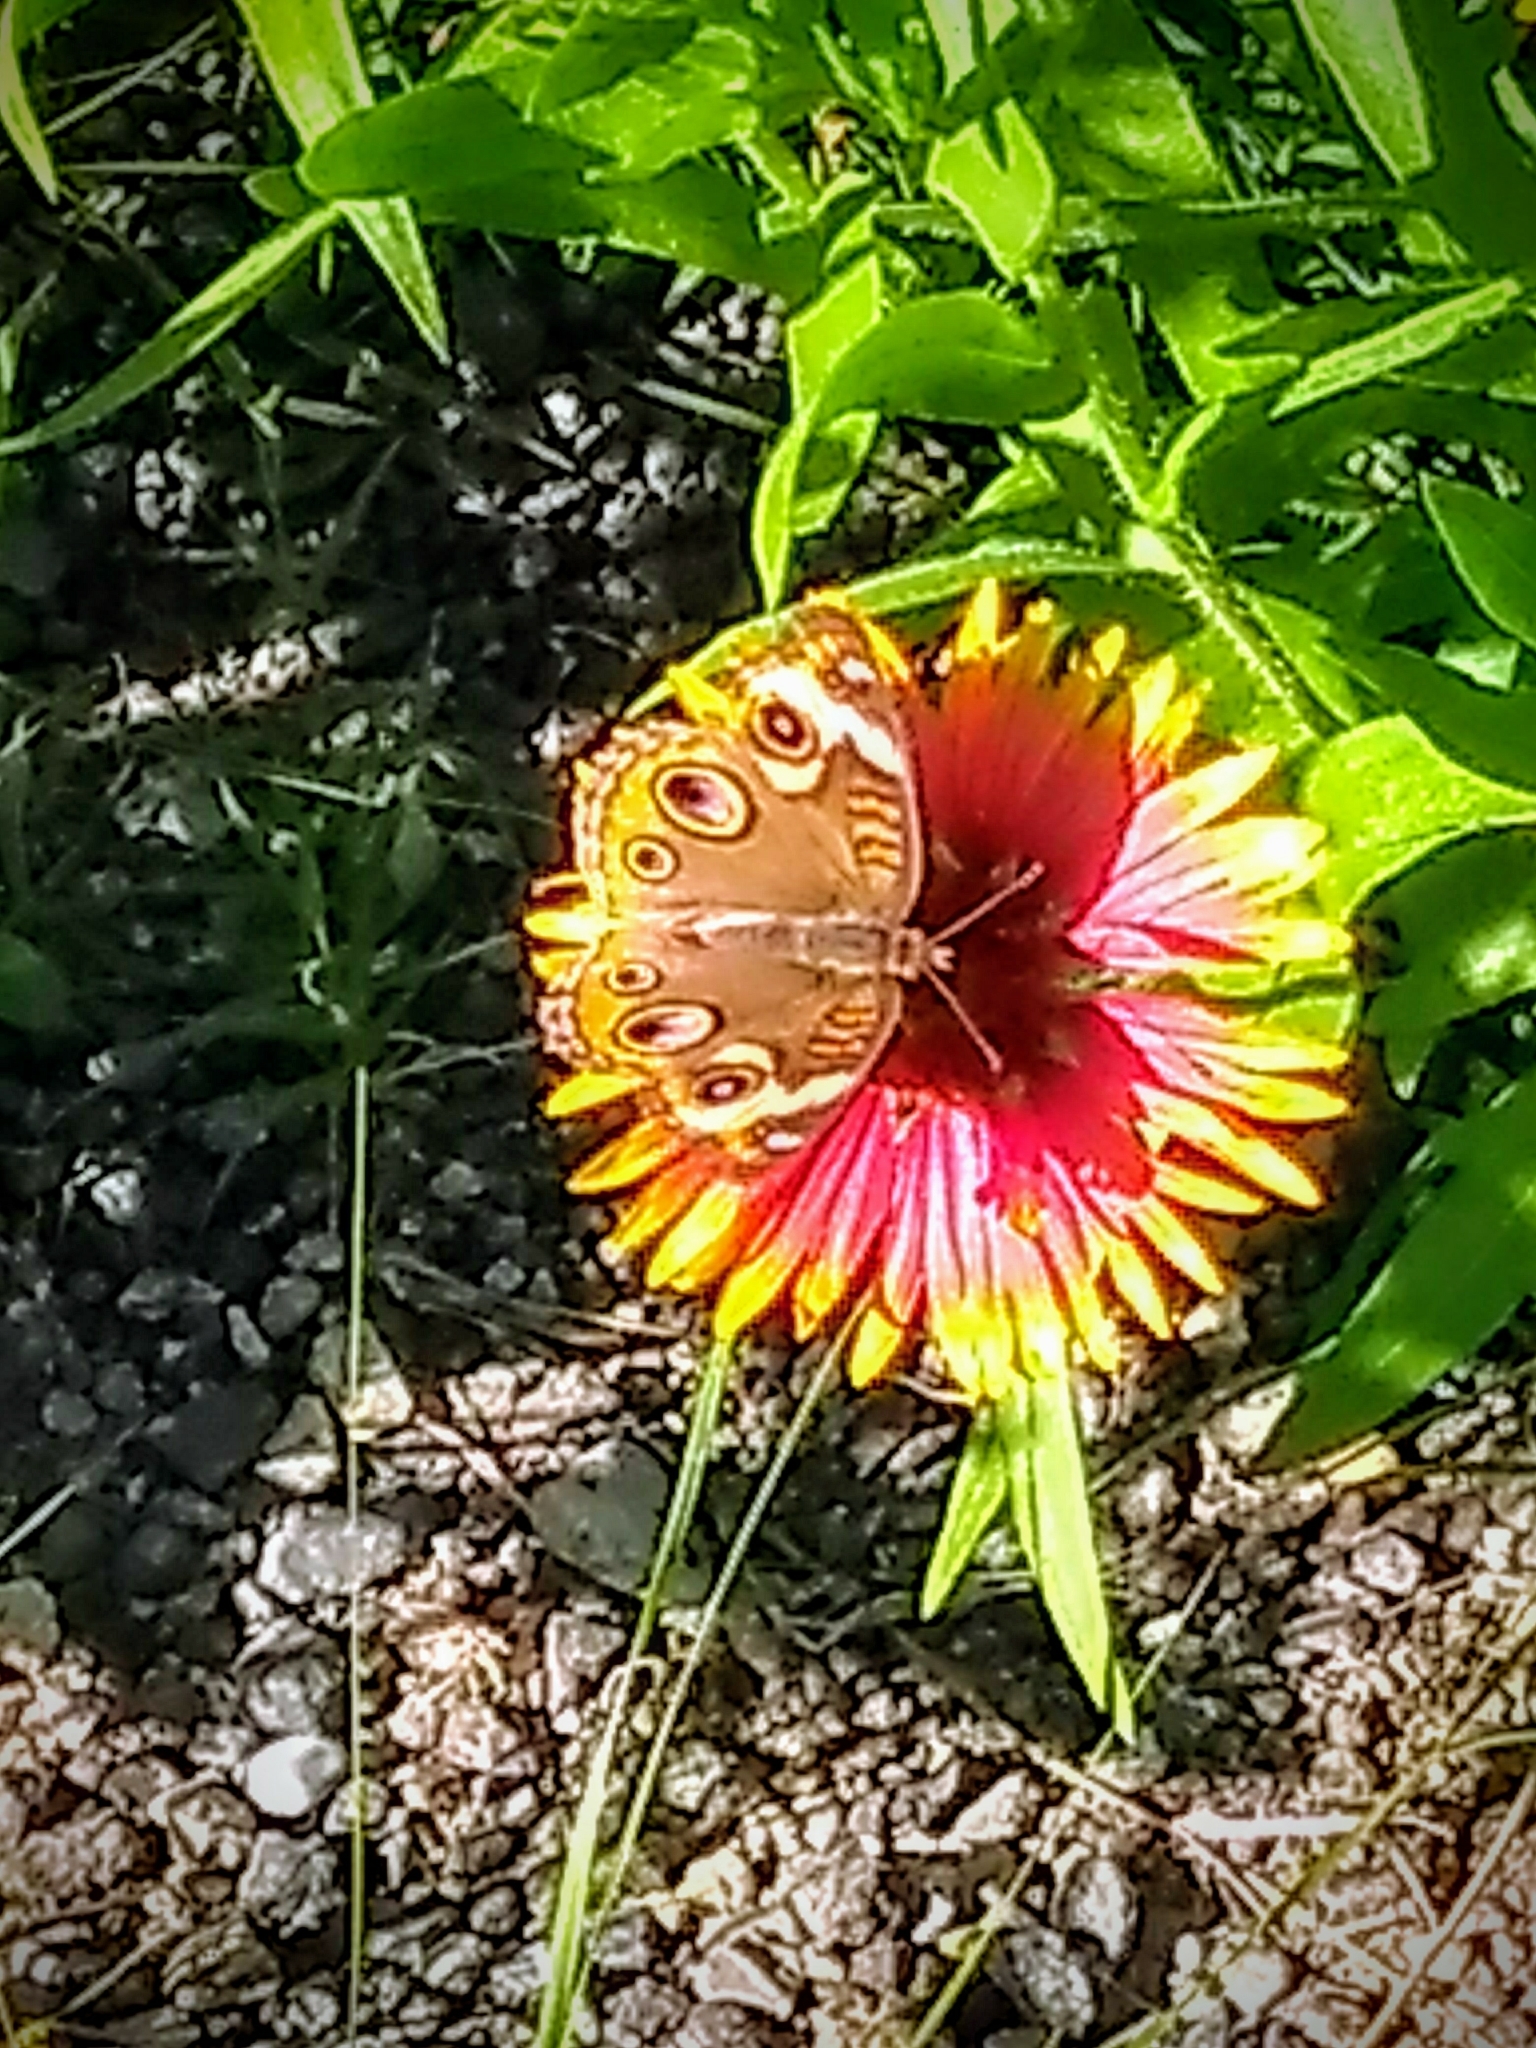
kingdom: Animalia
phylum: Arthropoda
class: Insecta
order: Lepidoptera
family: Nymphalidae
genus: Junonia
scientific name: Junonia coenia
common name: Common buckeye
